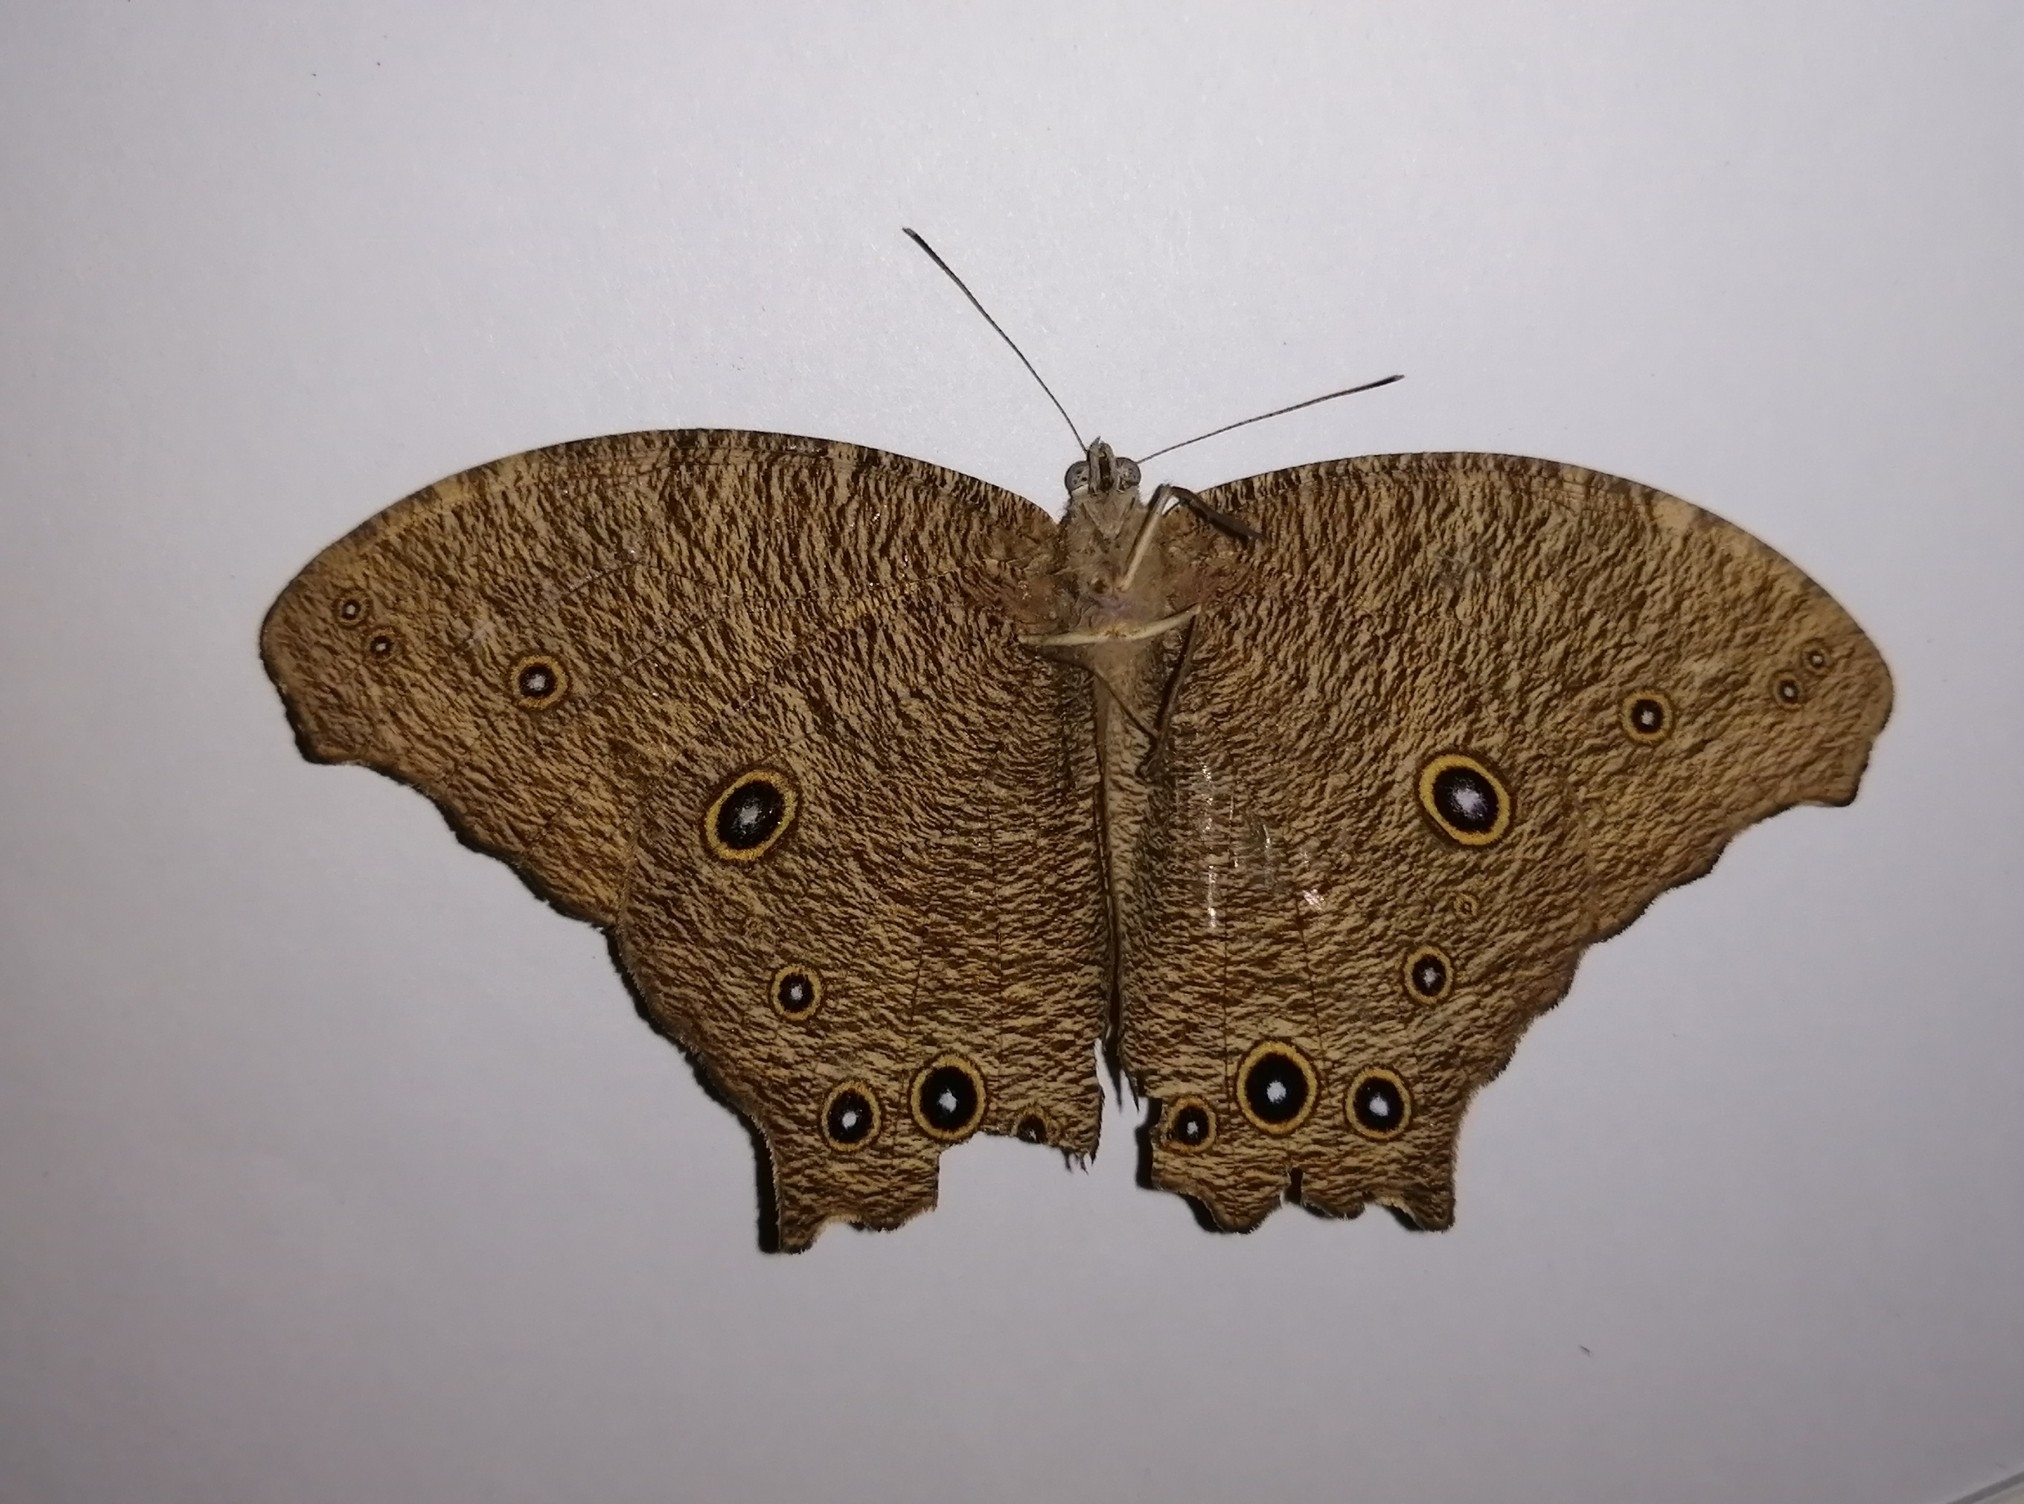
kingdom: Animalia
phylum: Arthropoda
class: Insecta
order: Lepidoptera
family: Nymphalidae
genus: Melanitis
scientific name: Melanitis leda
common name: Twilight brown
